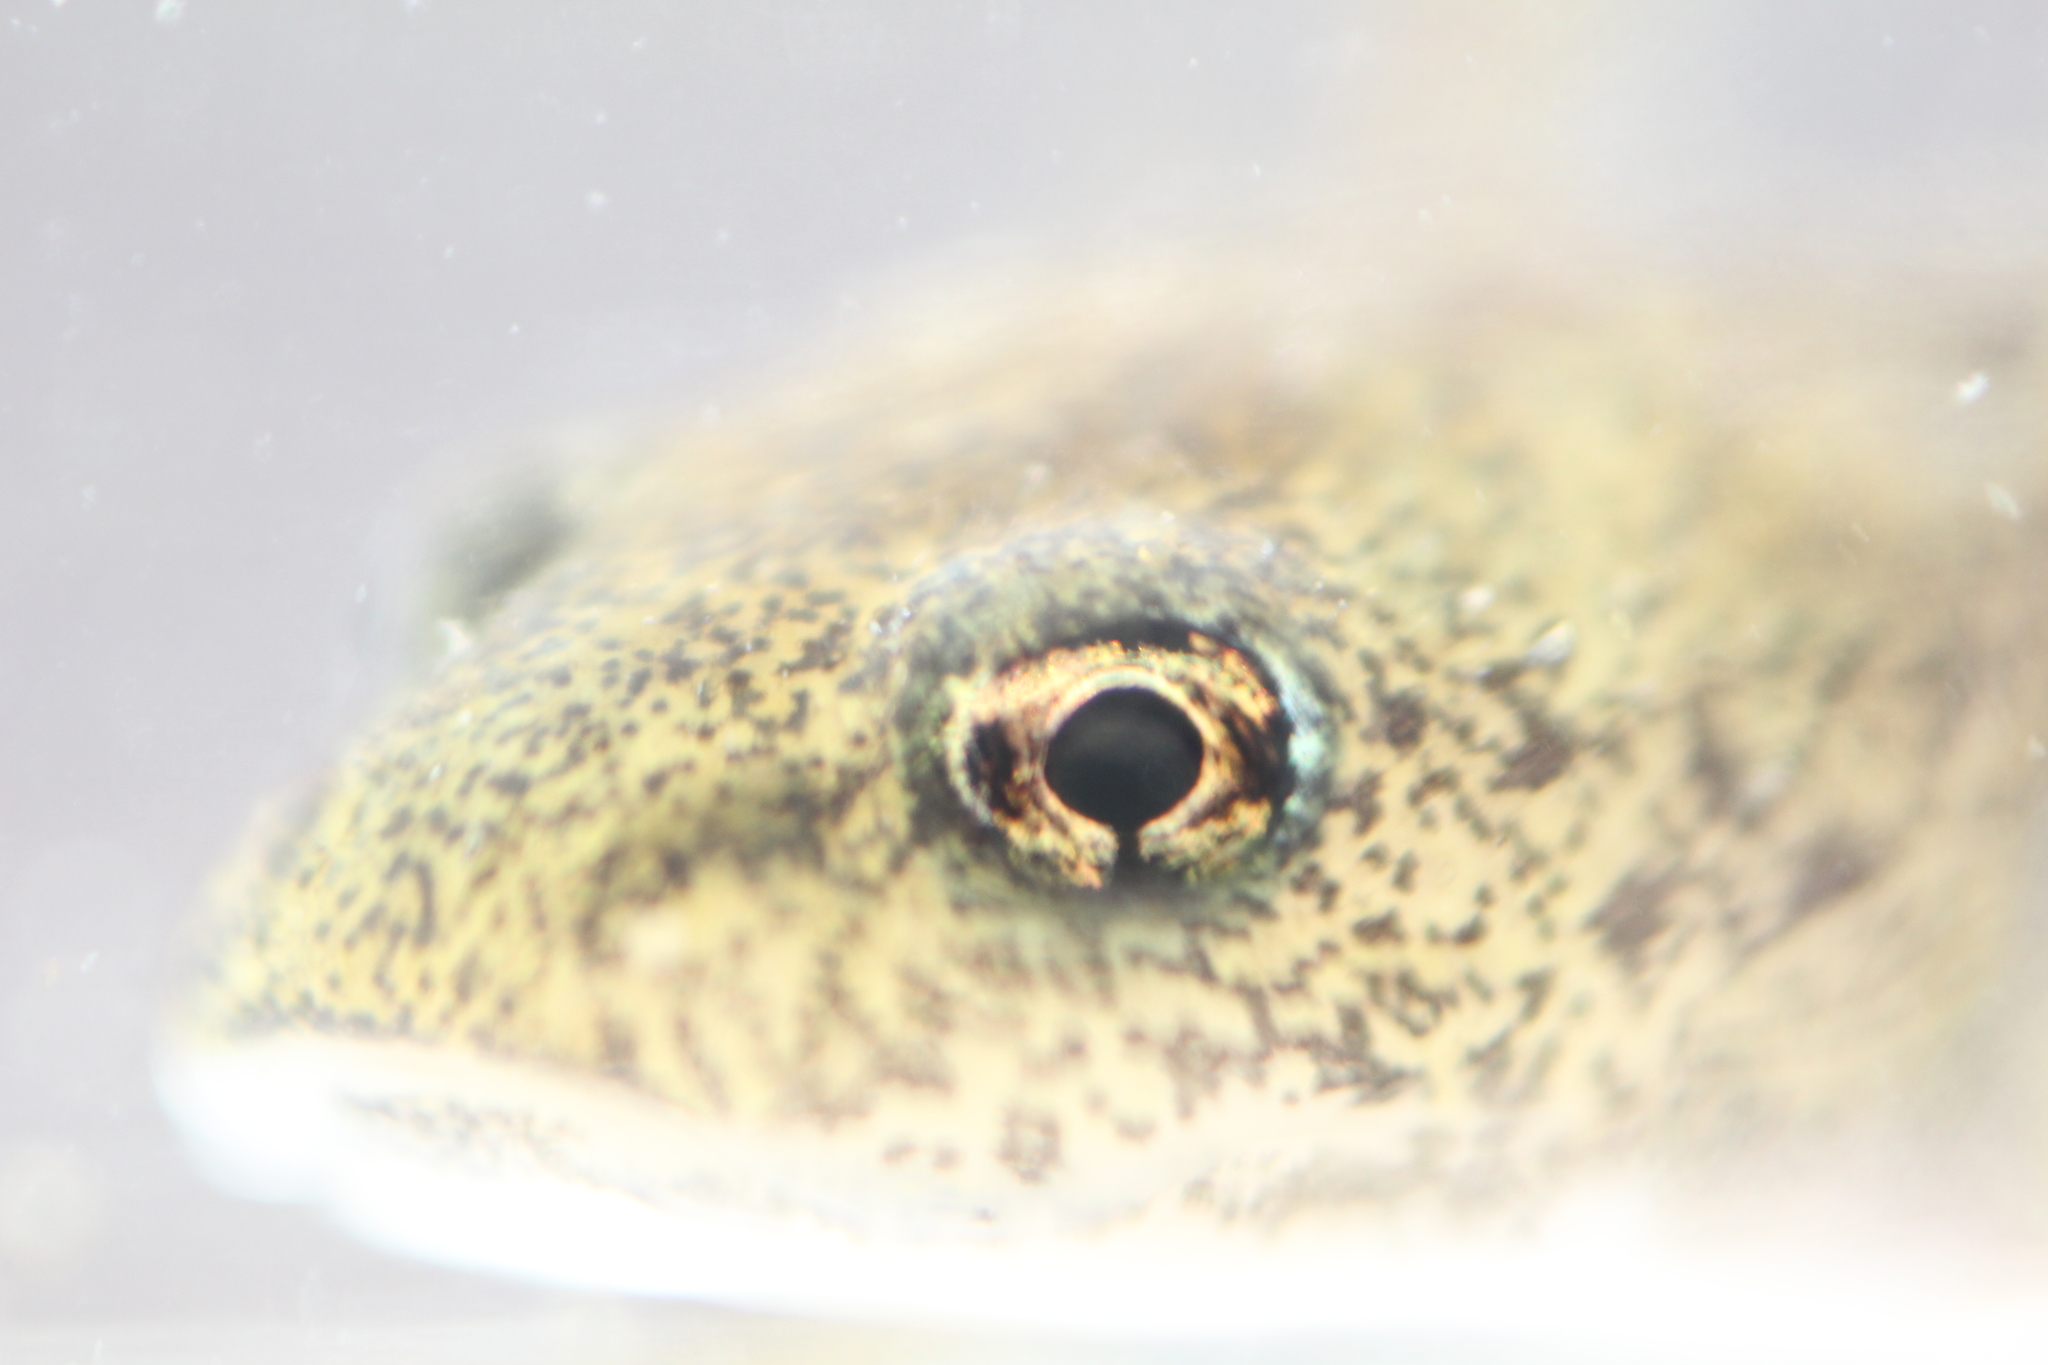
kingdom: Animalia
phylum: Chordata
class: Amphibia
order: Caudata
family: Salamandridae
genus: Salamandra
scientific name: Salamandra salamandra
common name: Fire salamander
